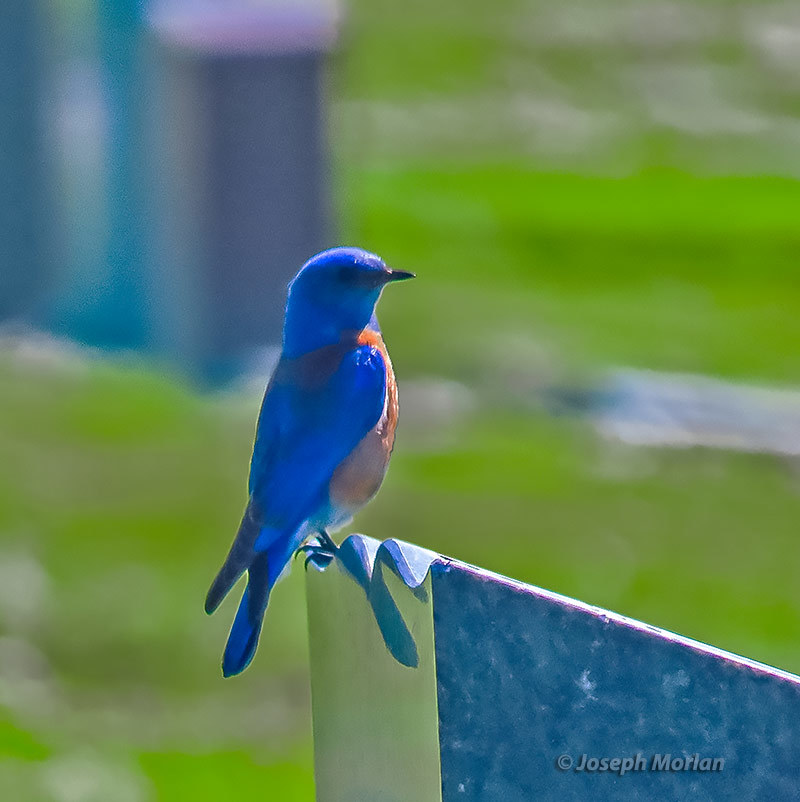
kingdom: Animalia
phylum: Chordata
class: Aves
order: Passeriformes
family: Turdidae
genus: Sialia
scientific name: Sialia mexicana
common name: Western bluebird
